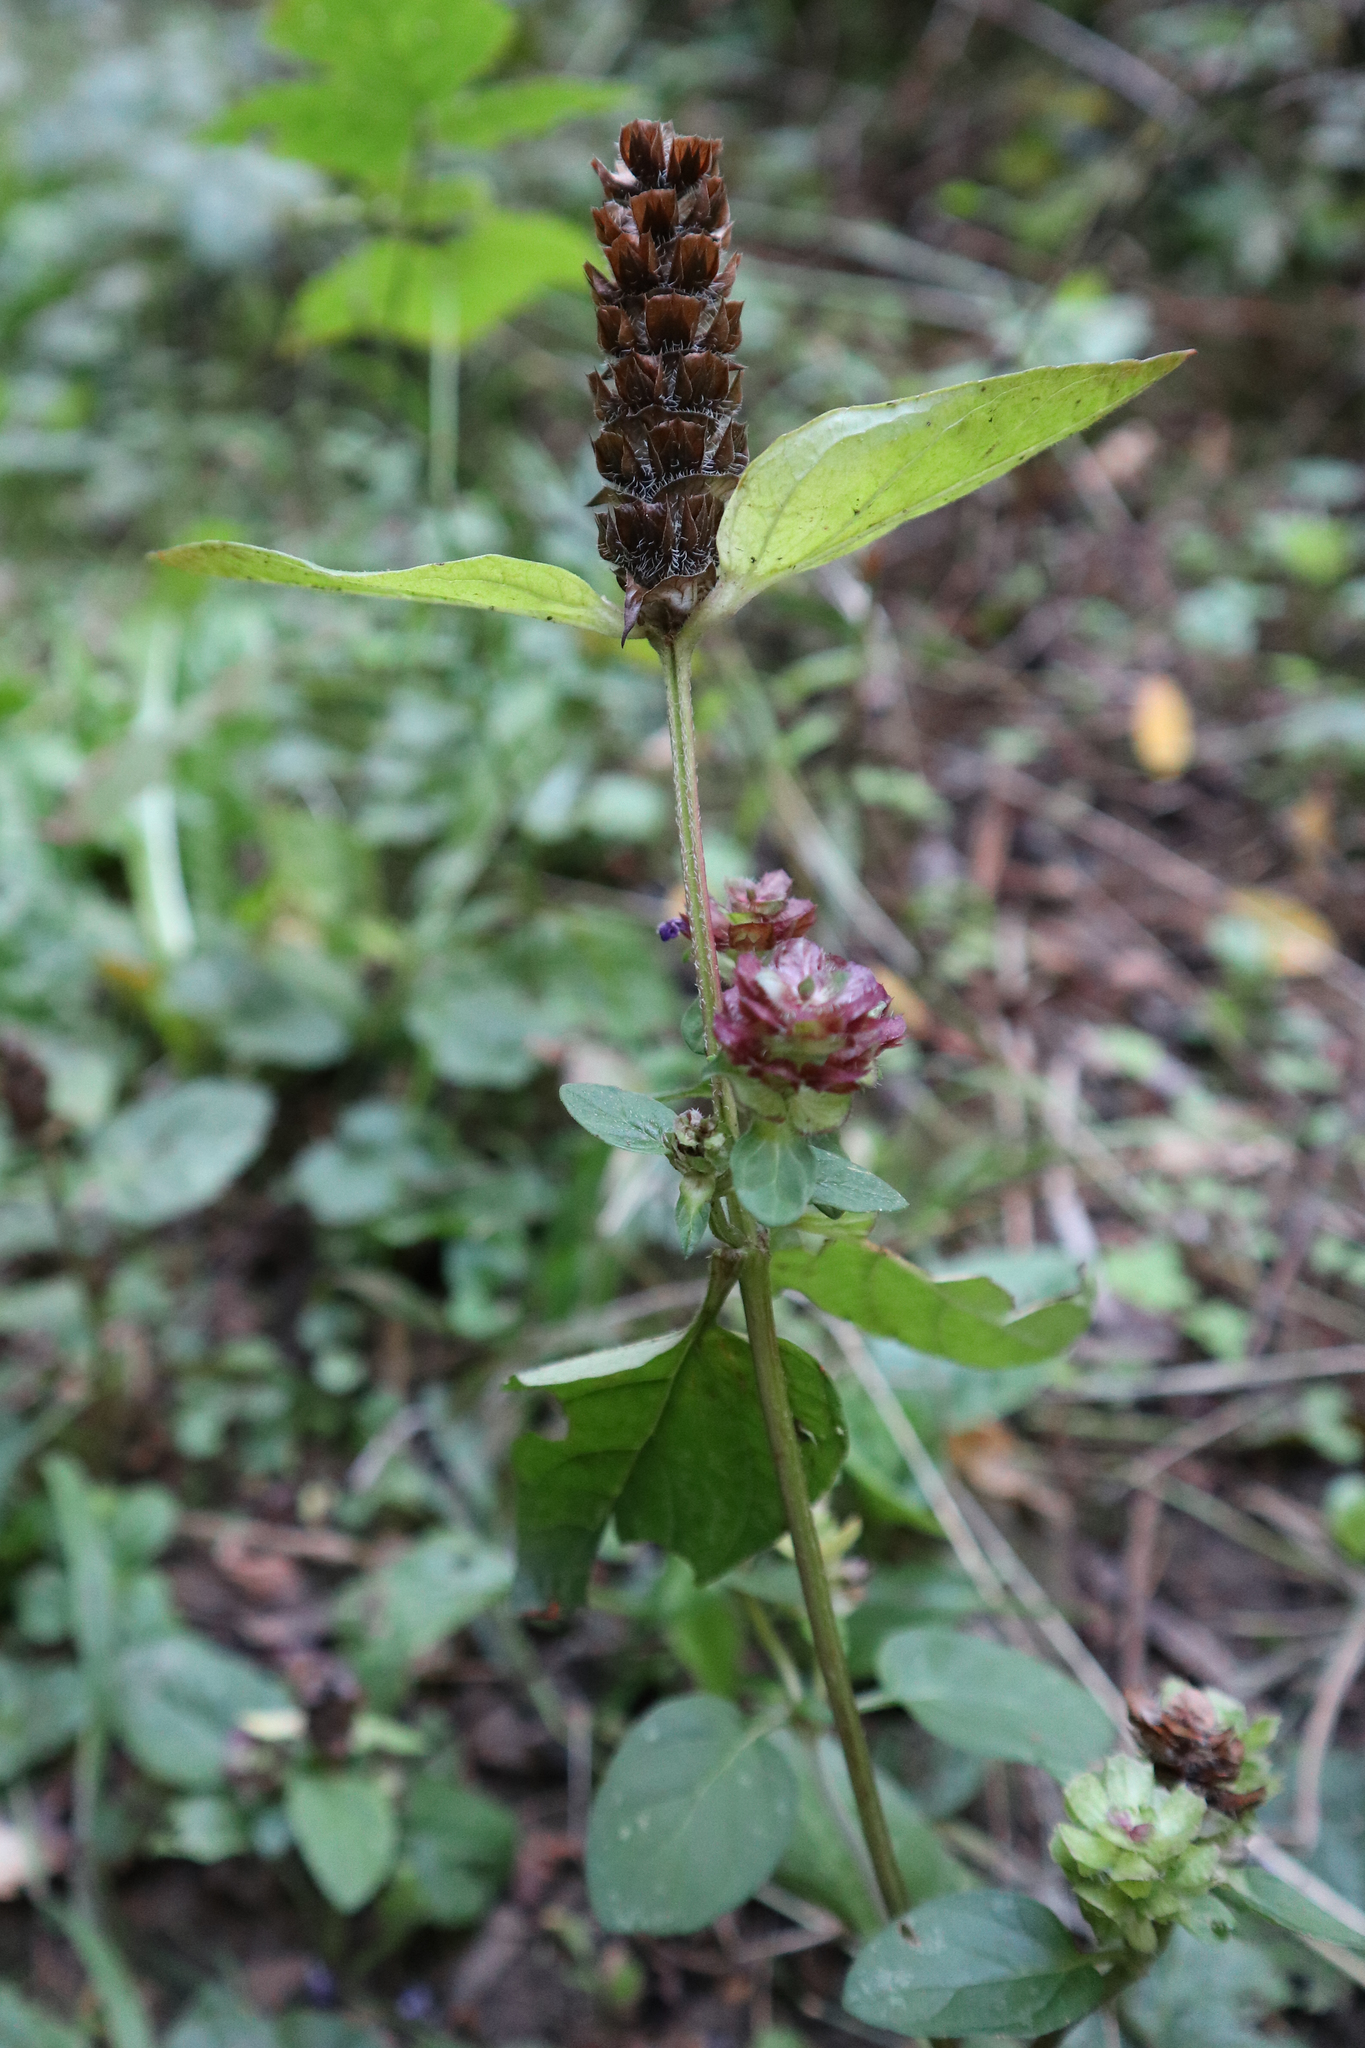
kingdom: Plantae
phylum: Tracheophyta
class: Magnoliopsida
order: Lamiales
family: Lamiaceae
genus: Prunella
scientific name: Prunella vulgaris
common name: Heal-all
